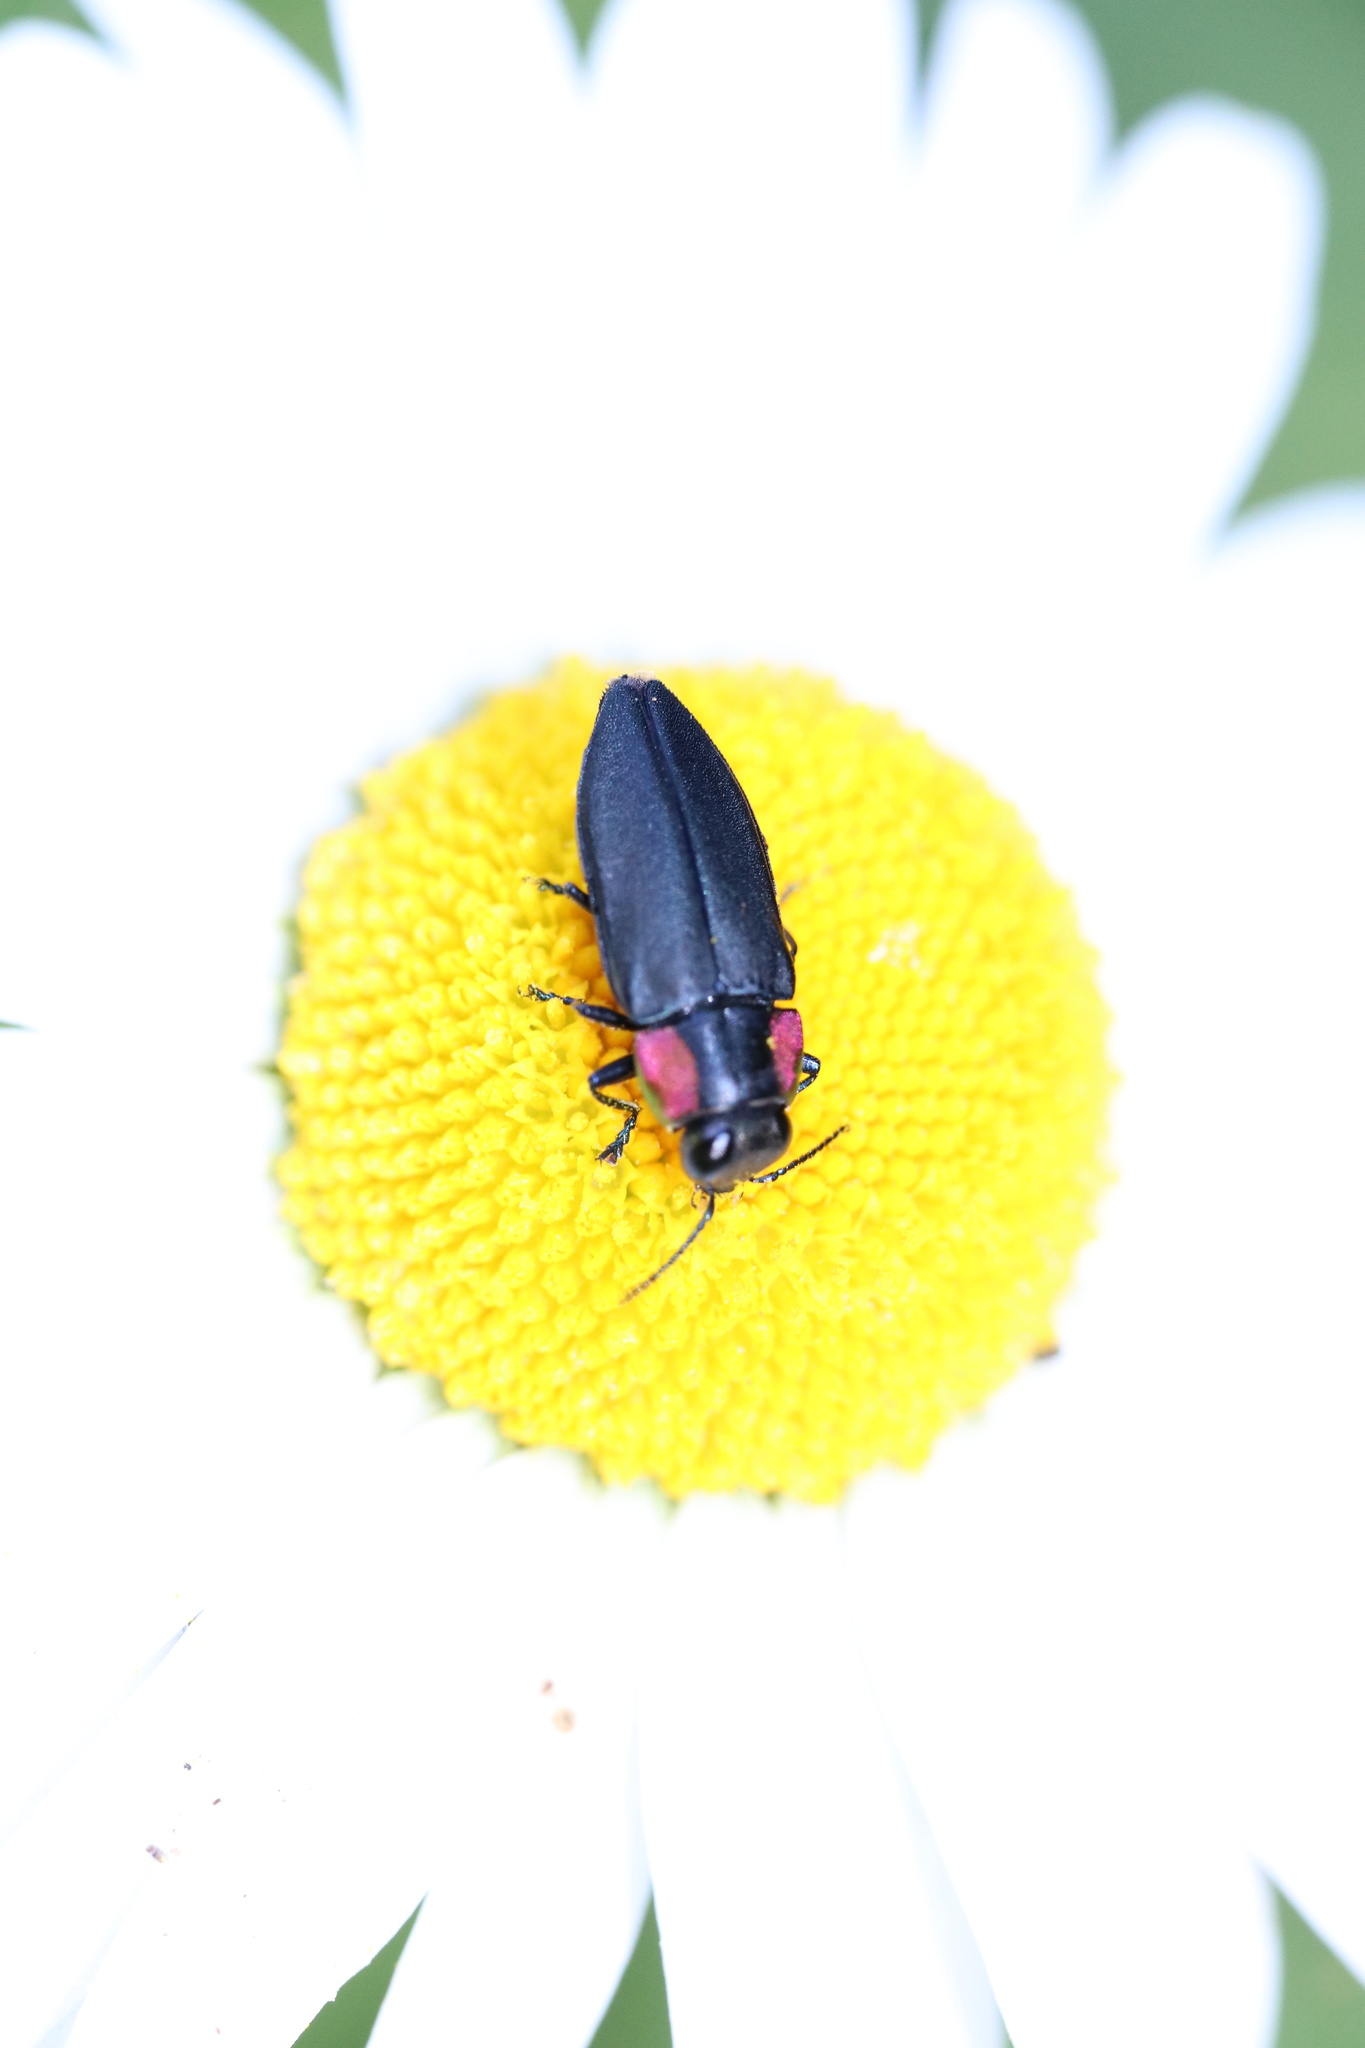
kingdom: Animalia
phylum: Arthropoda
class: Insecta
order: Coleoptera
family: Buprestidae
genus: Romanophora
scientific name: Romanophora verecunda
